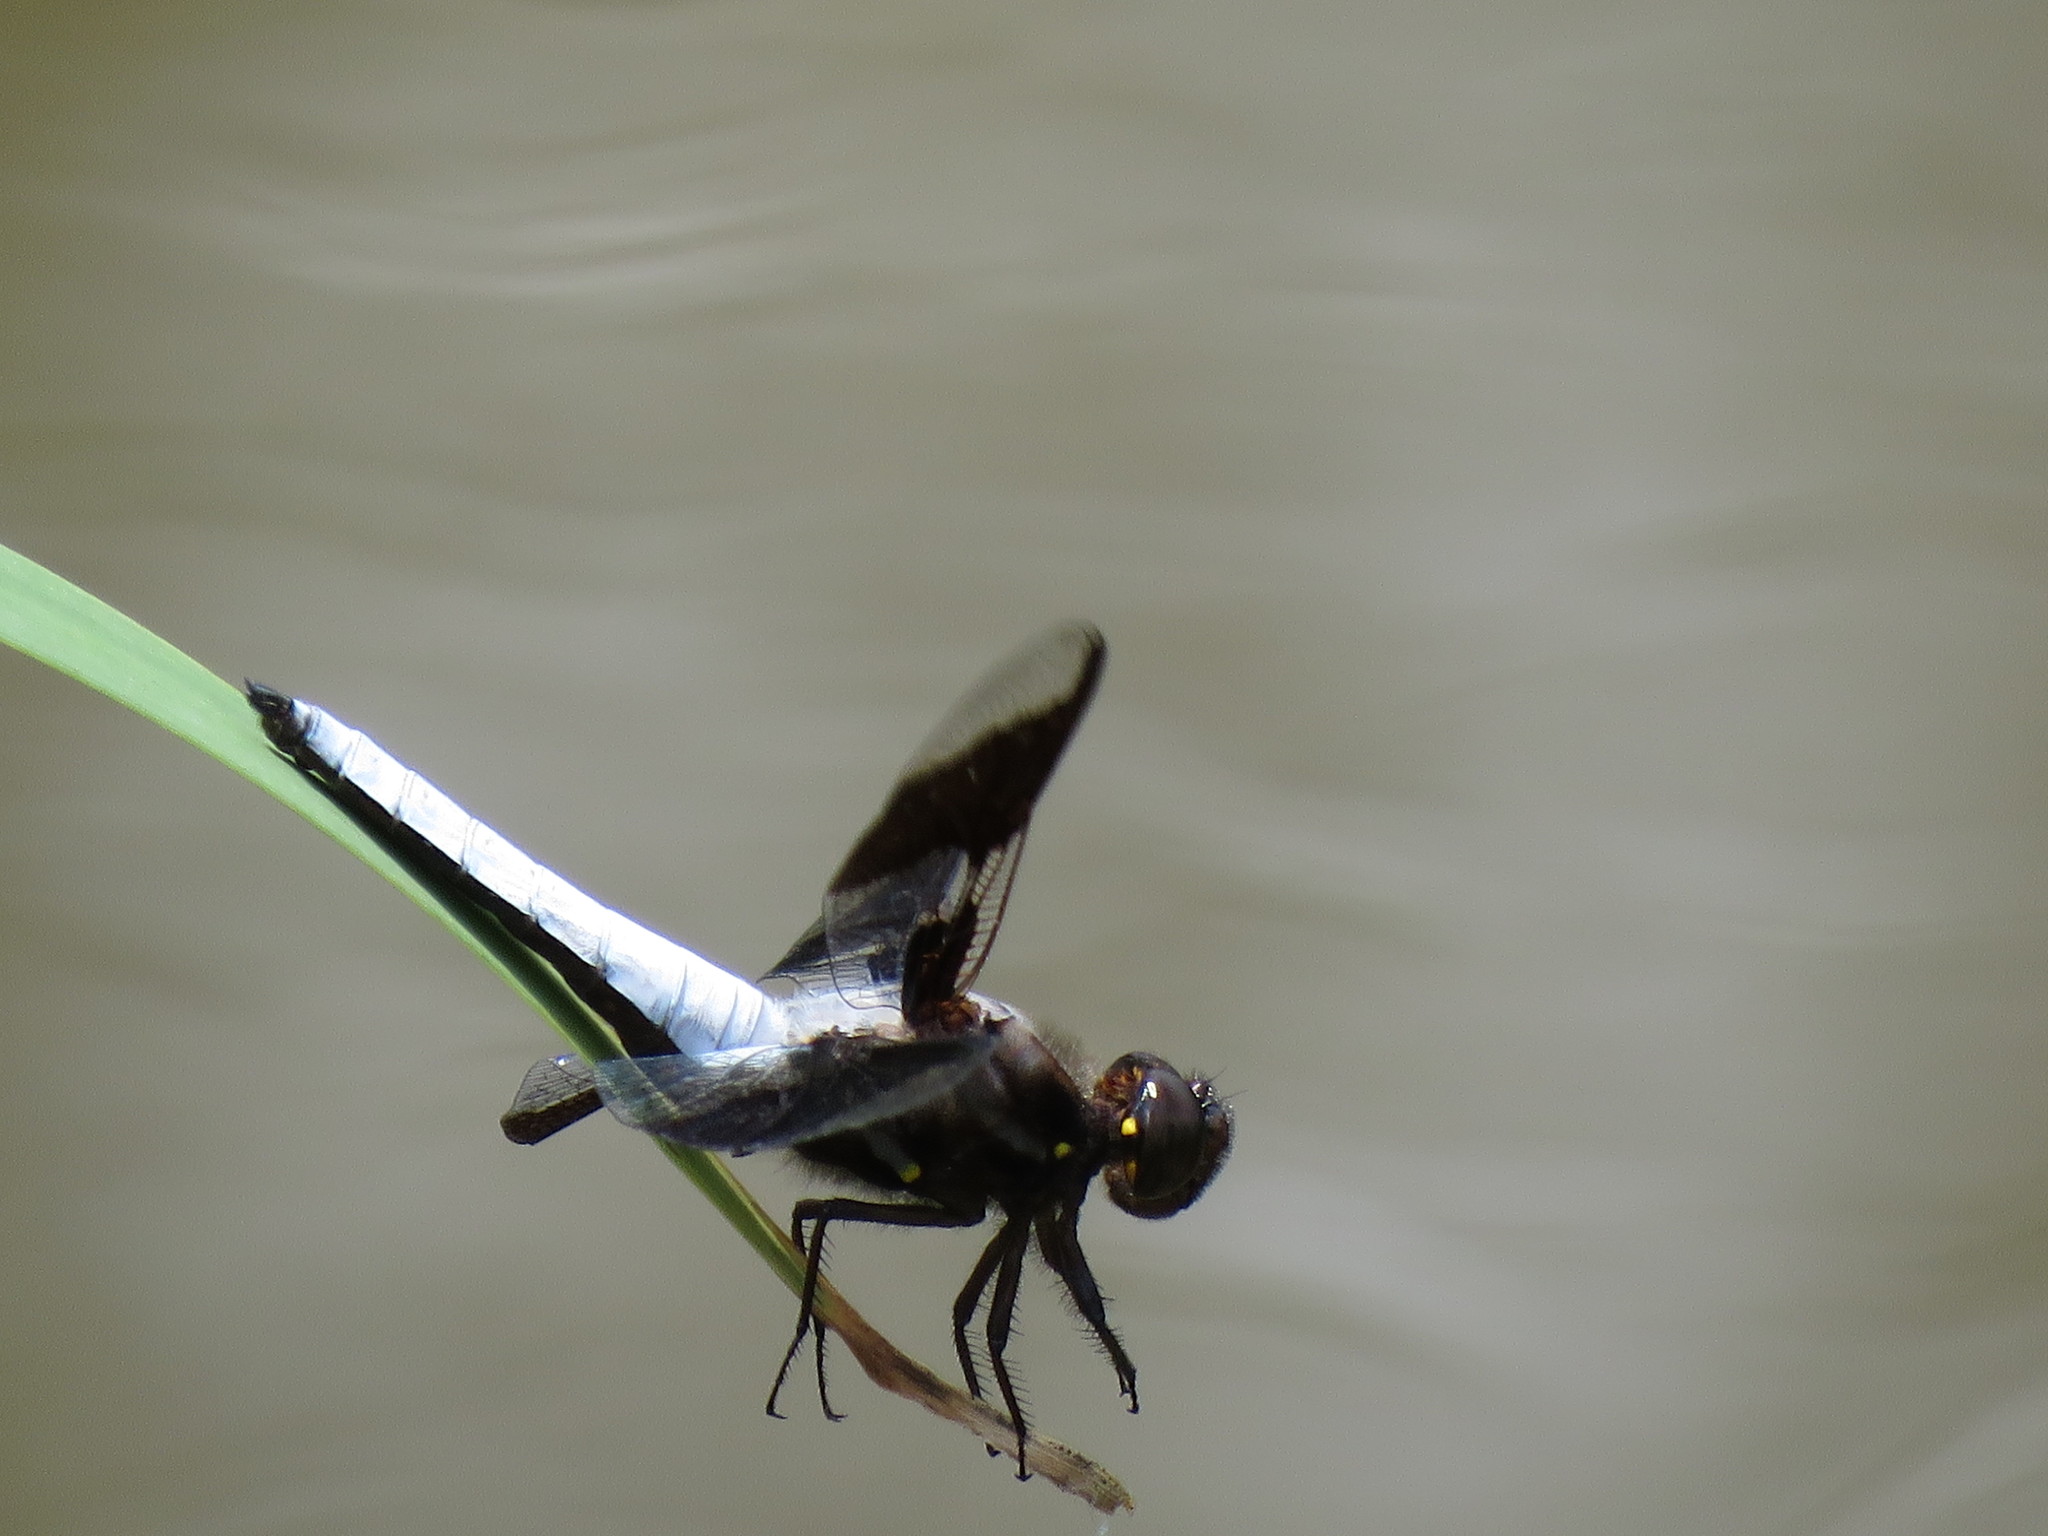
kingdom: Animalia
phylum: Arthropoda
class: Insecta
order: Odonata
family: Libellulidae
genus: Plathemis
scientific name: Plathemis lydia
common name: Common whitetail
